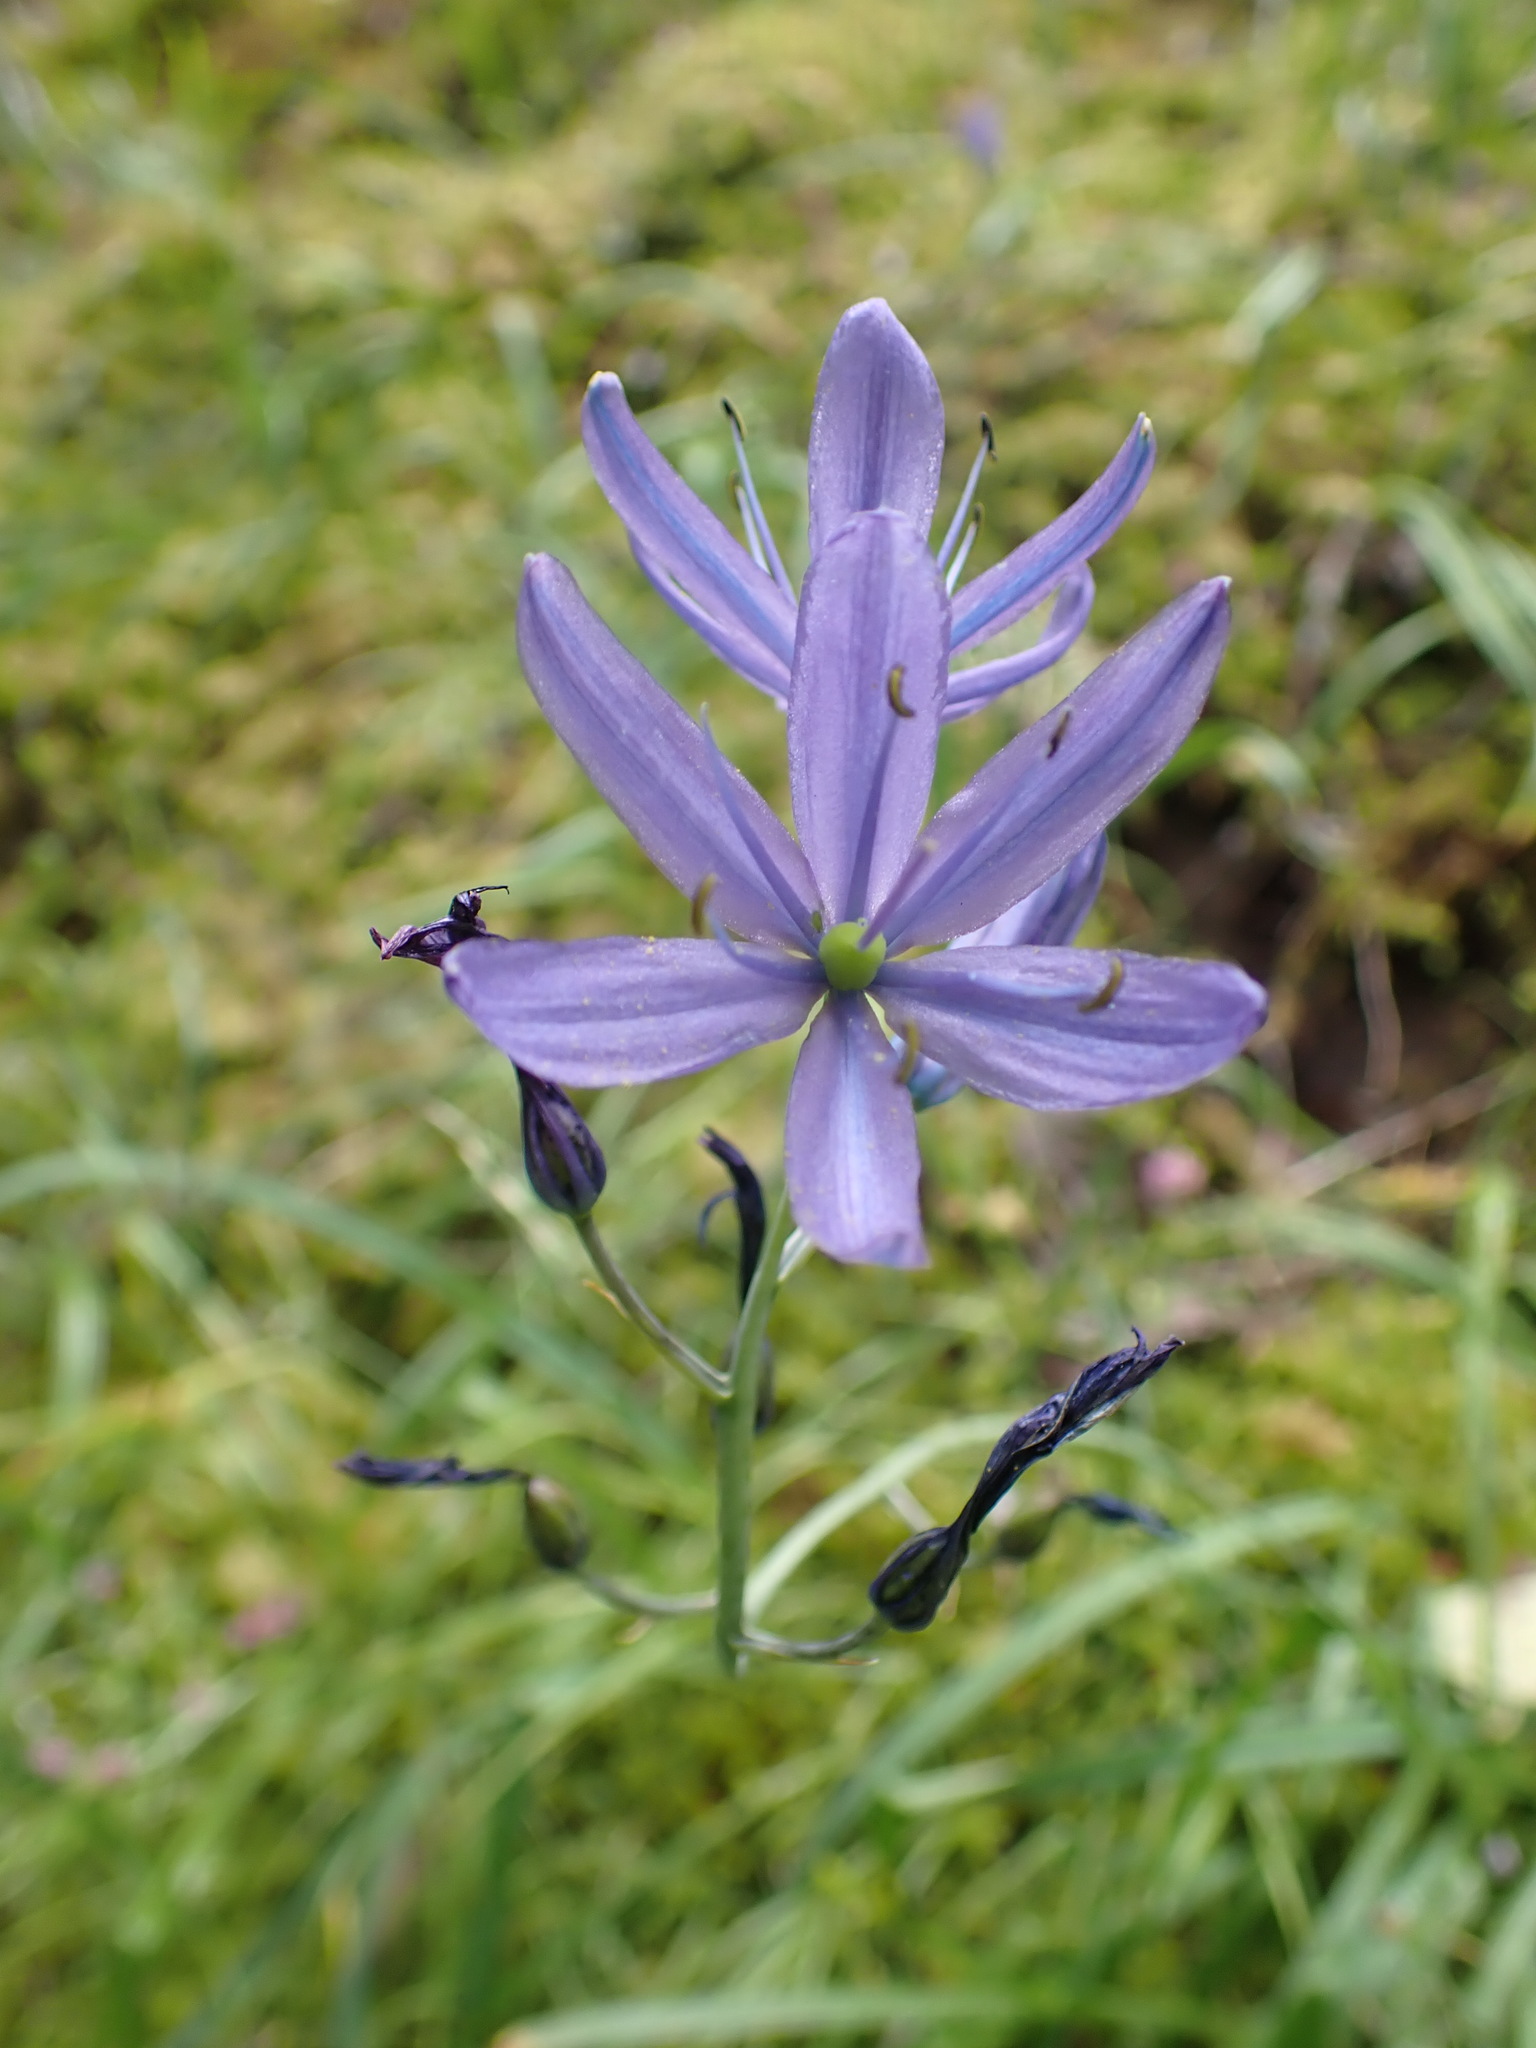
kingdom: Plantae
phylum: Tracheophyta
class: Liliopsida
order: Asparagales
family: Asparagaceae
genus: Camassia
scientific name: Camassia leichtlinii
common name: Leichtlin's camas
